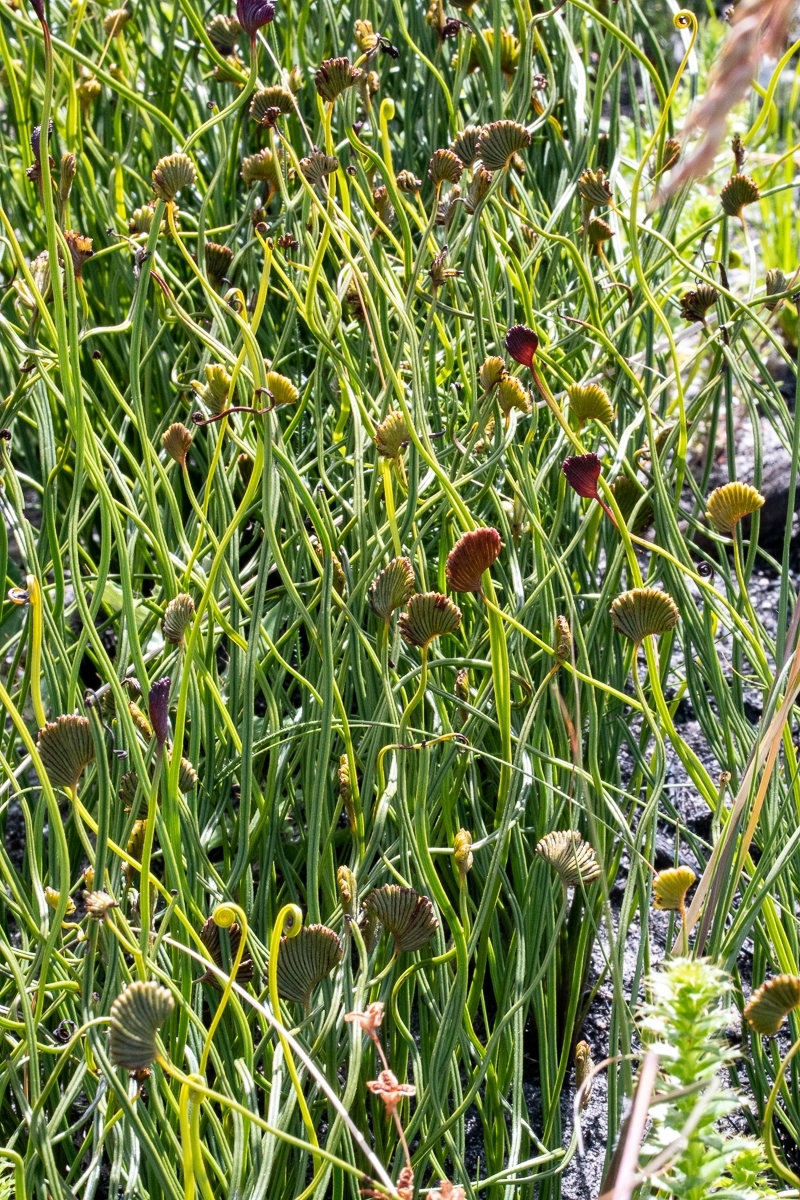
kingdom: Plantae
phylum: Tracheophyta
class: Polypodiopsida
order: Schizaeales
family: Schizaeaceae
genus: Schizaea
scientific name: Schizaea pectinata
